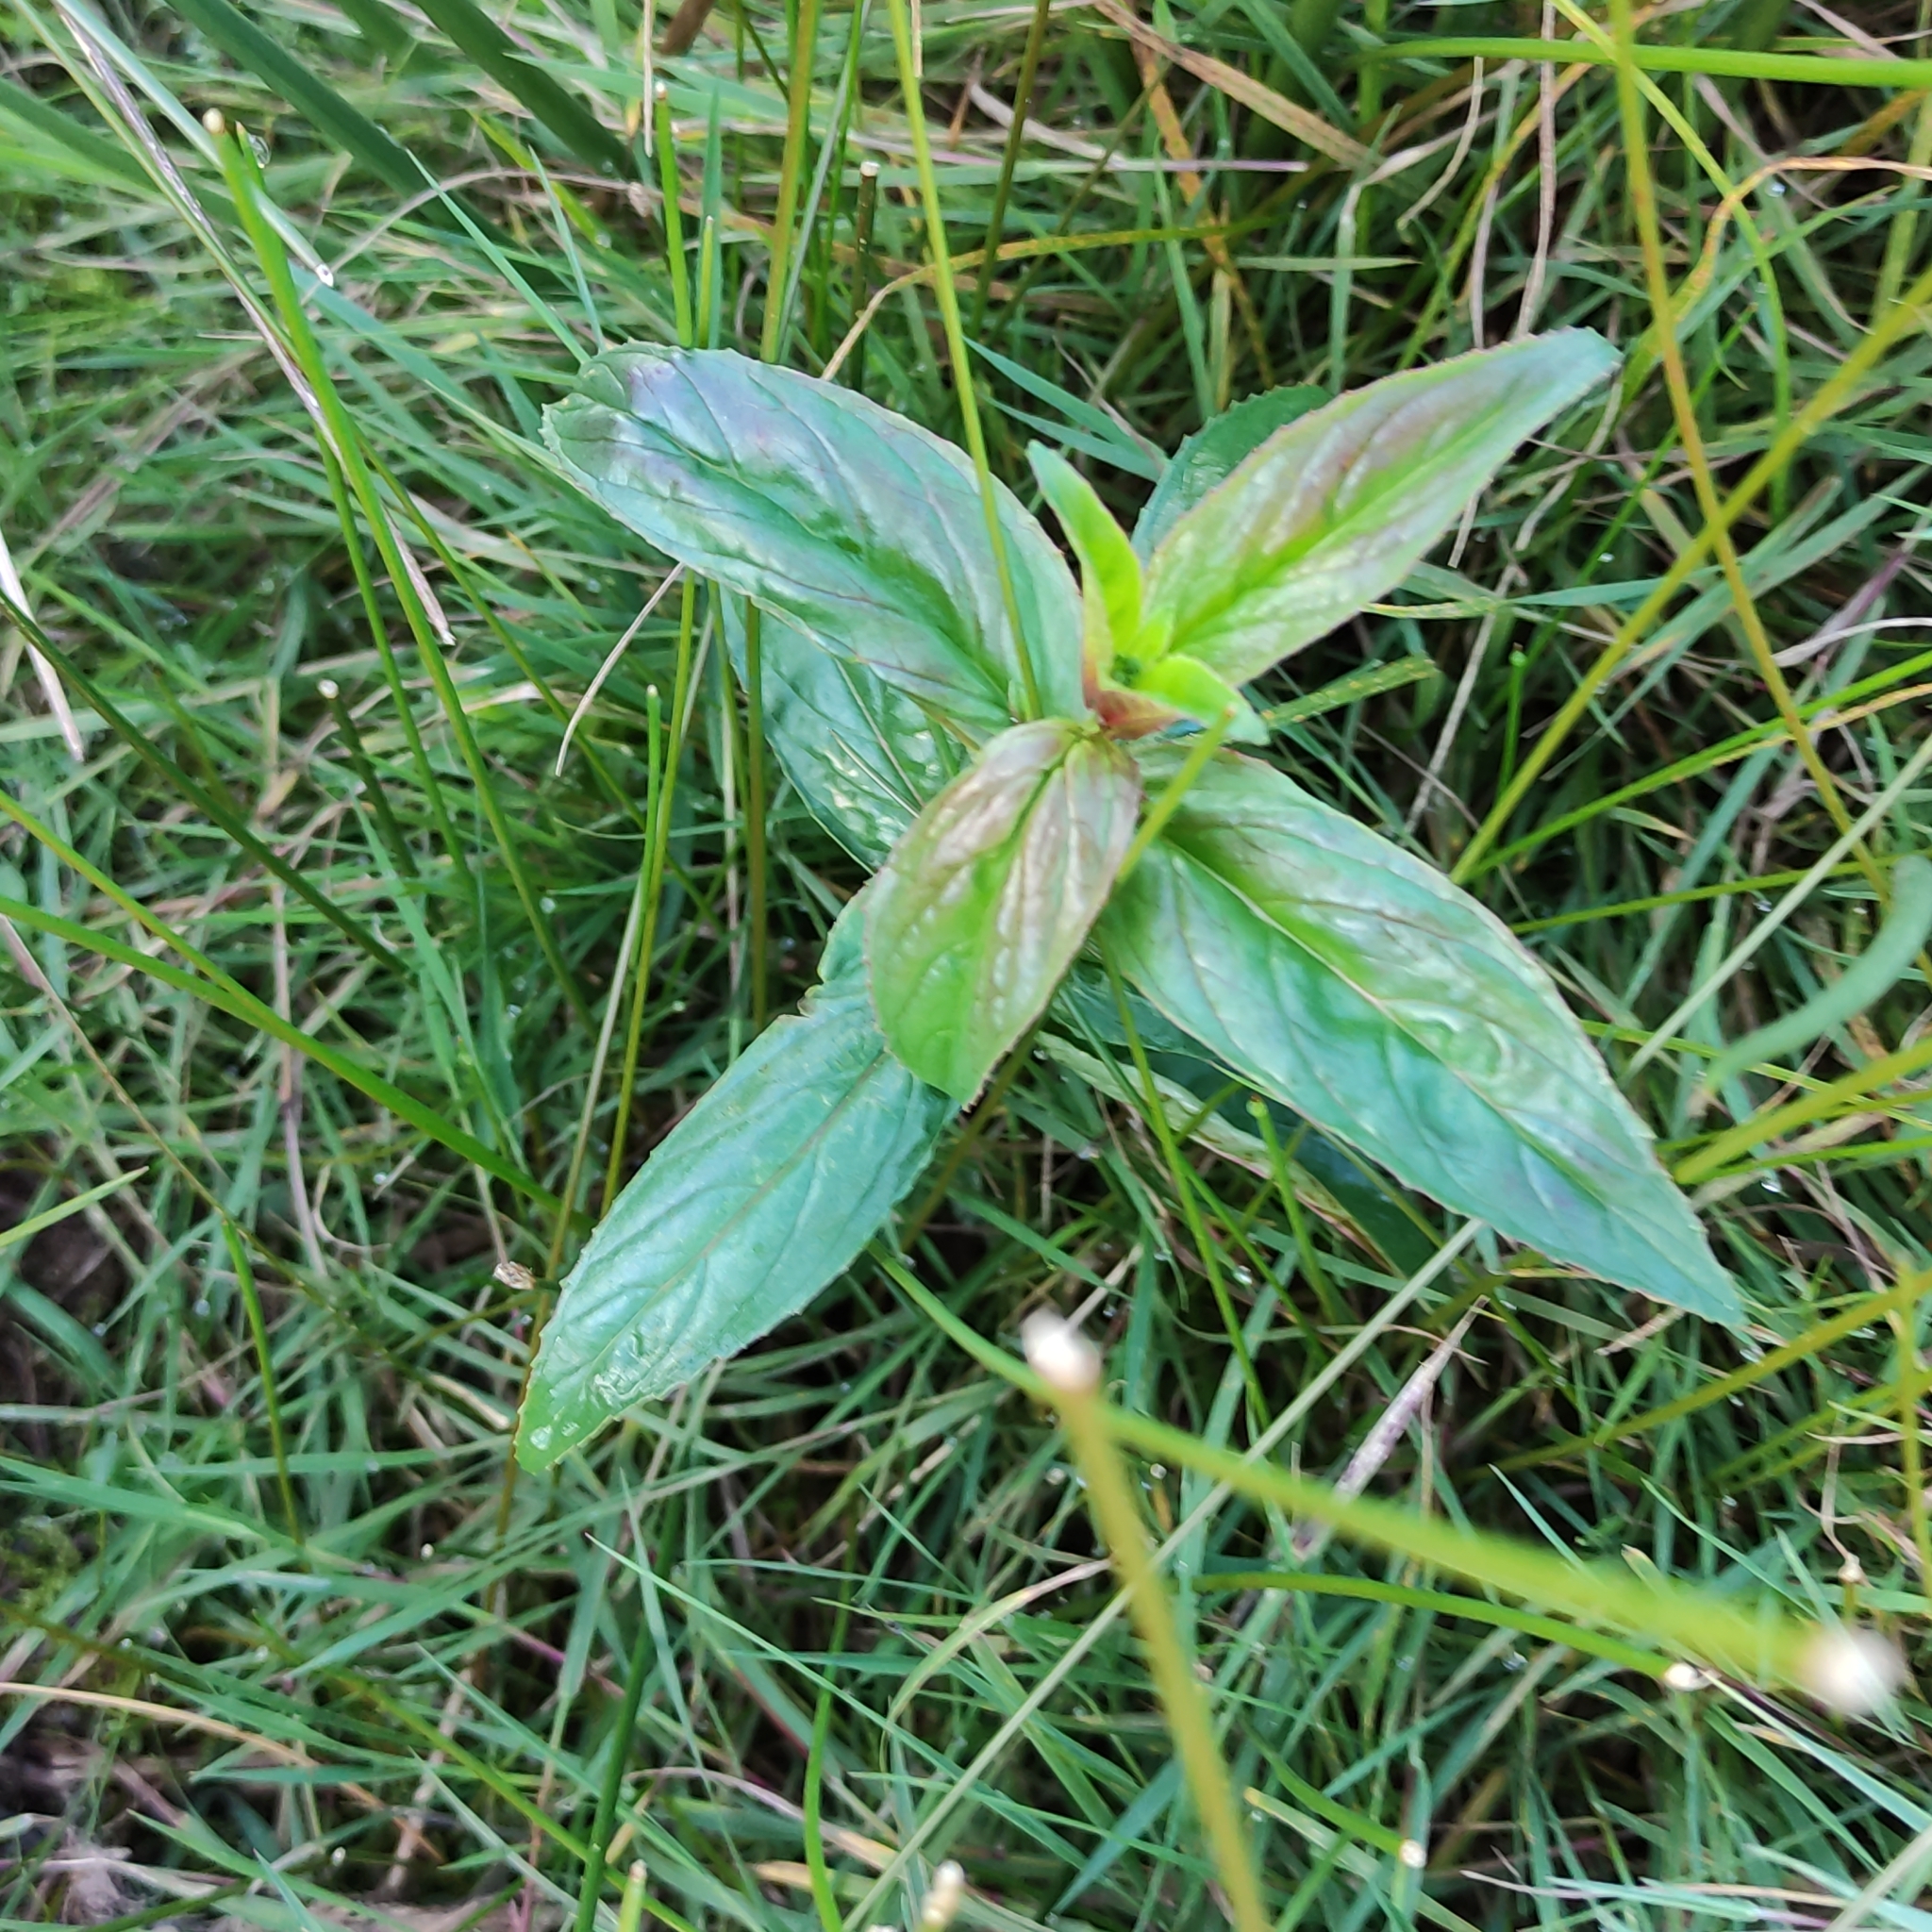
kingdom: Plantae
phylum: Tracheophyta
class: Magnoliopsida
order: Myrtales
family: Onagraceae
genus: Epilobium
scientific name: Epilobium ciliatum
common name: American willowherb
